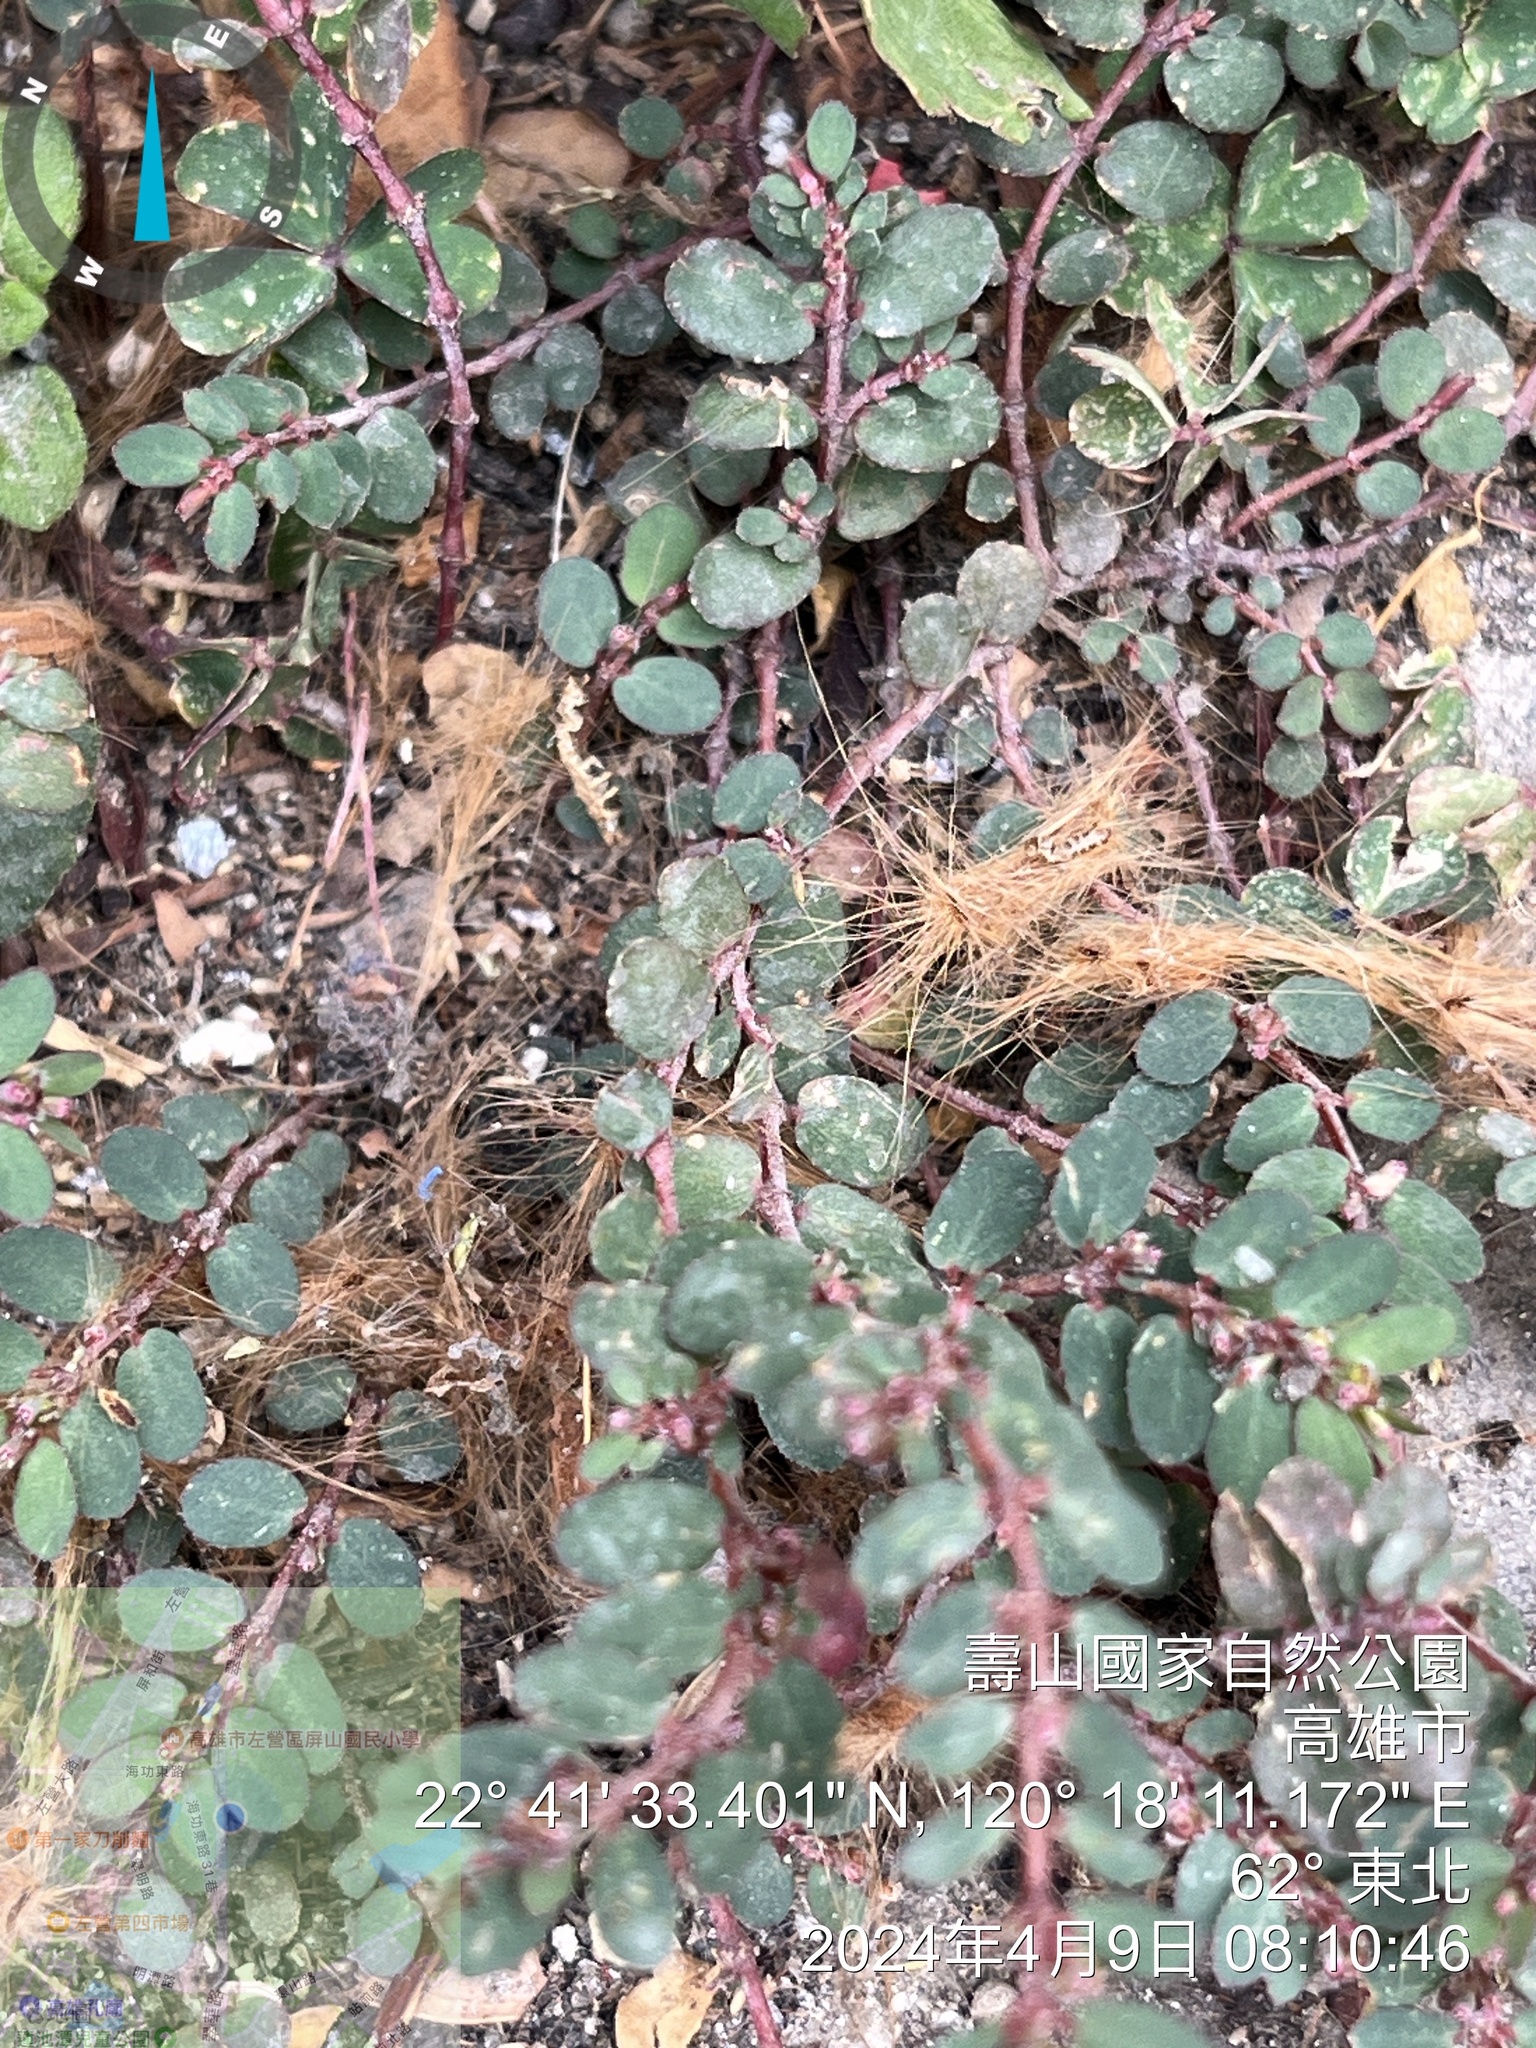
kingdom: Plantae
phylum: Tracheophyta
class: Magnoliopsida
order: Malpighiales
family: Euphorbiaceae
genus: Euphorbia
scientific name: Euphorbia prostrata
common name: Prostrate sandmat
